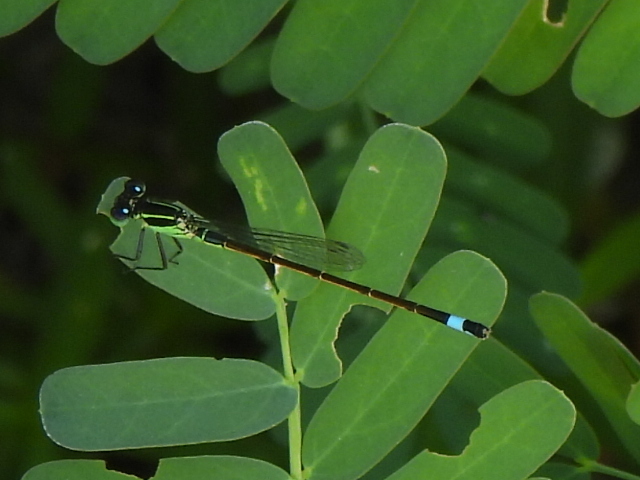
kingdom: Animalia
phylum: Arthropoda
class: Insecta
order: Odonata
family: Coenagrionidae
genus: Ischnura
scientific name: Ischnura ramburii
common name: Rambur's forktail
